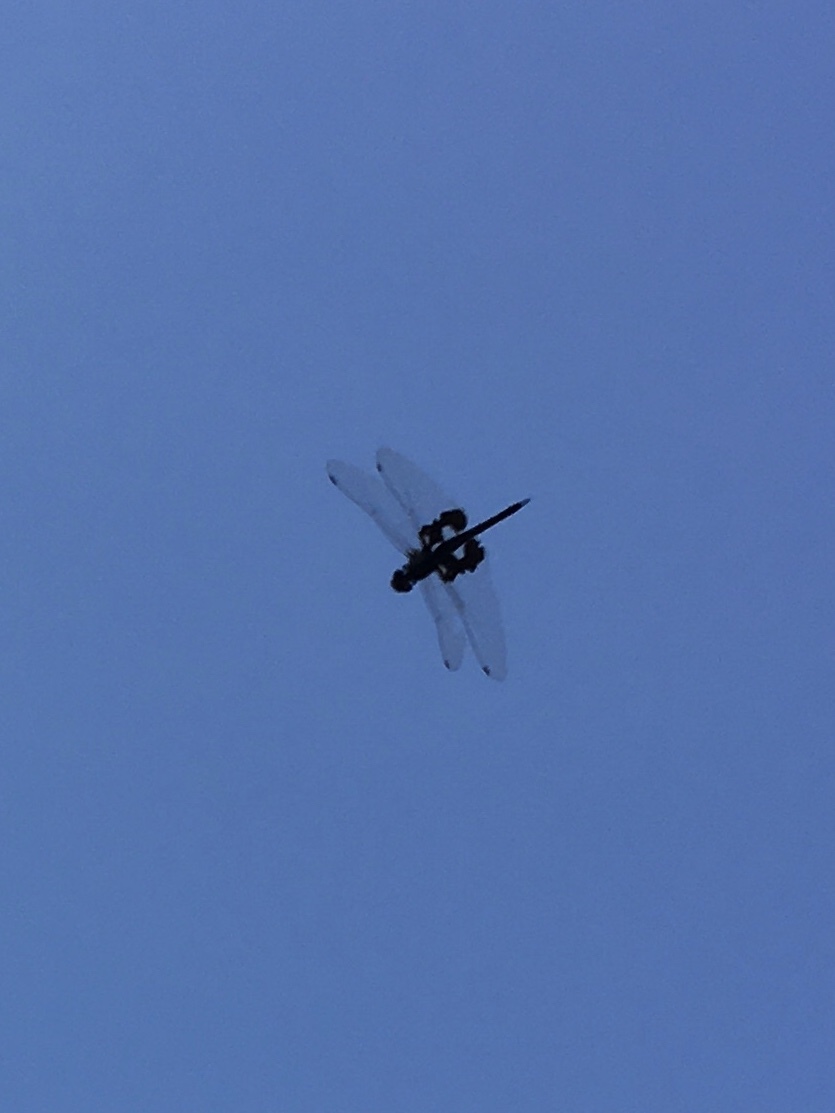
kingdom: Animalia
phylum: Arthropoda
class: Insecta
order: Odonata
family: Libellulidae
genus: Tramea
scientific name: Tramea lacerata
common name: Black saddlebags
